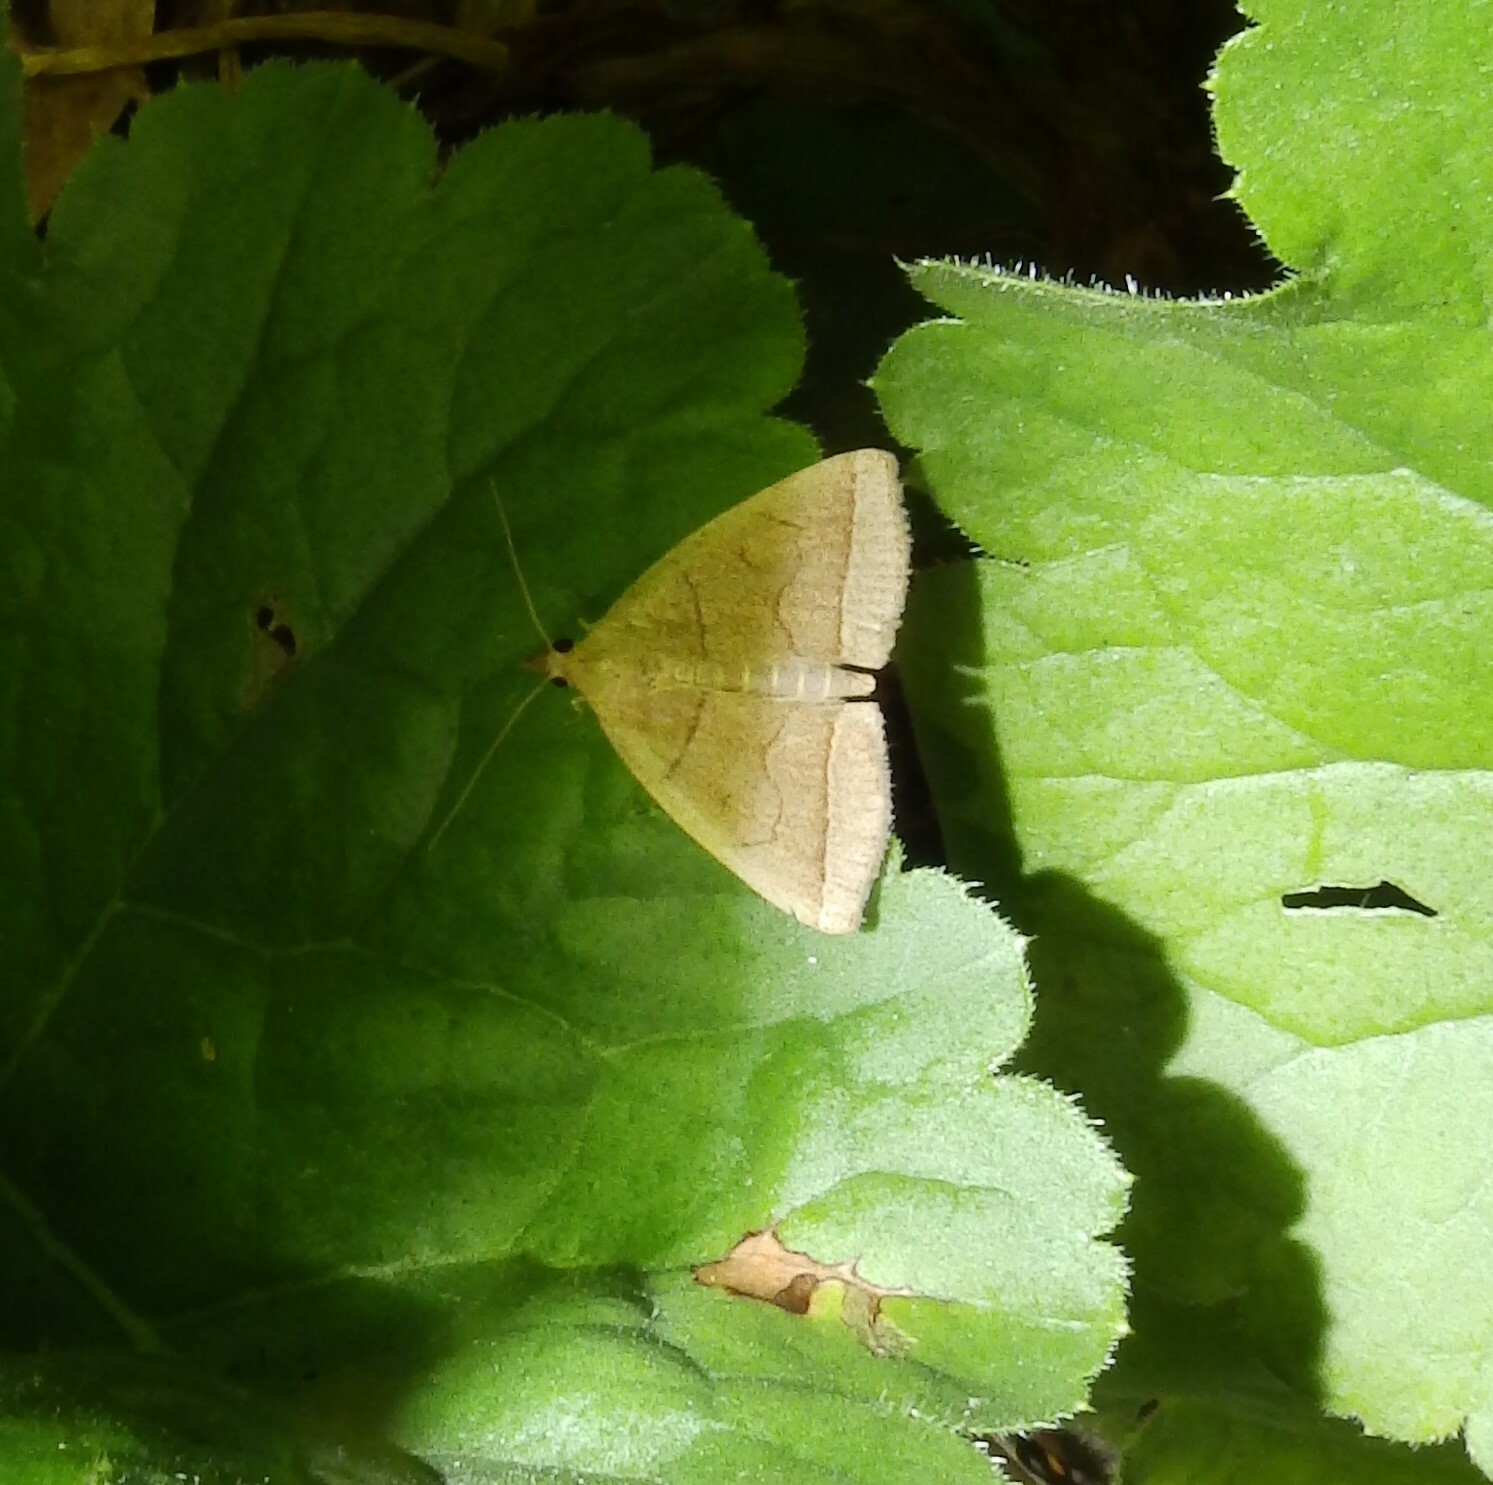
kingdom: Animalia
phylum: Arthropoda
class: Insecta
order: Lepidoptera
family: Erebidae
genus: Zanclognatha
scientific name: Zanclognatha cruralis
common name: Early fan-foot
